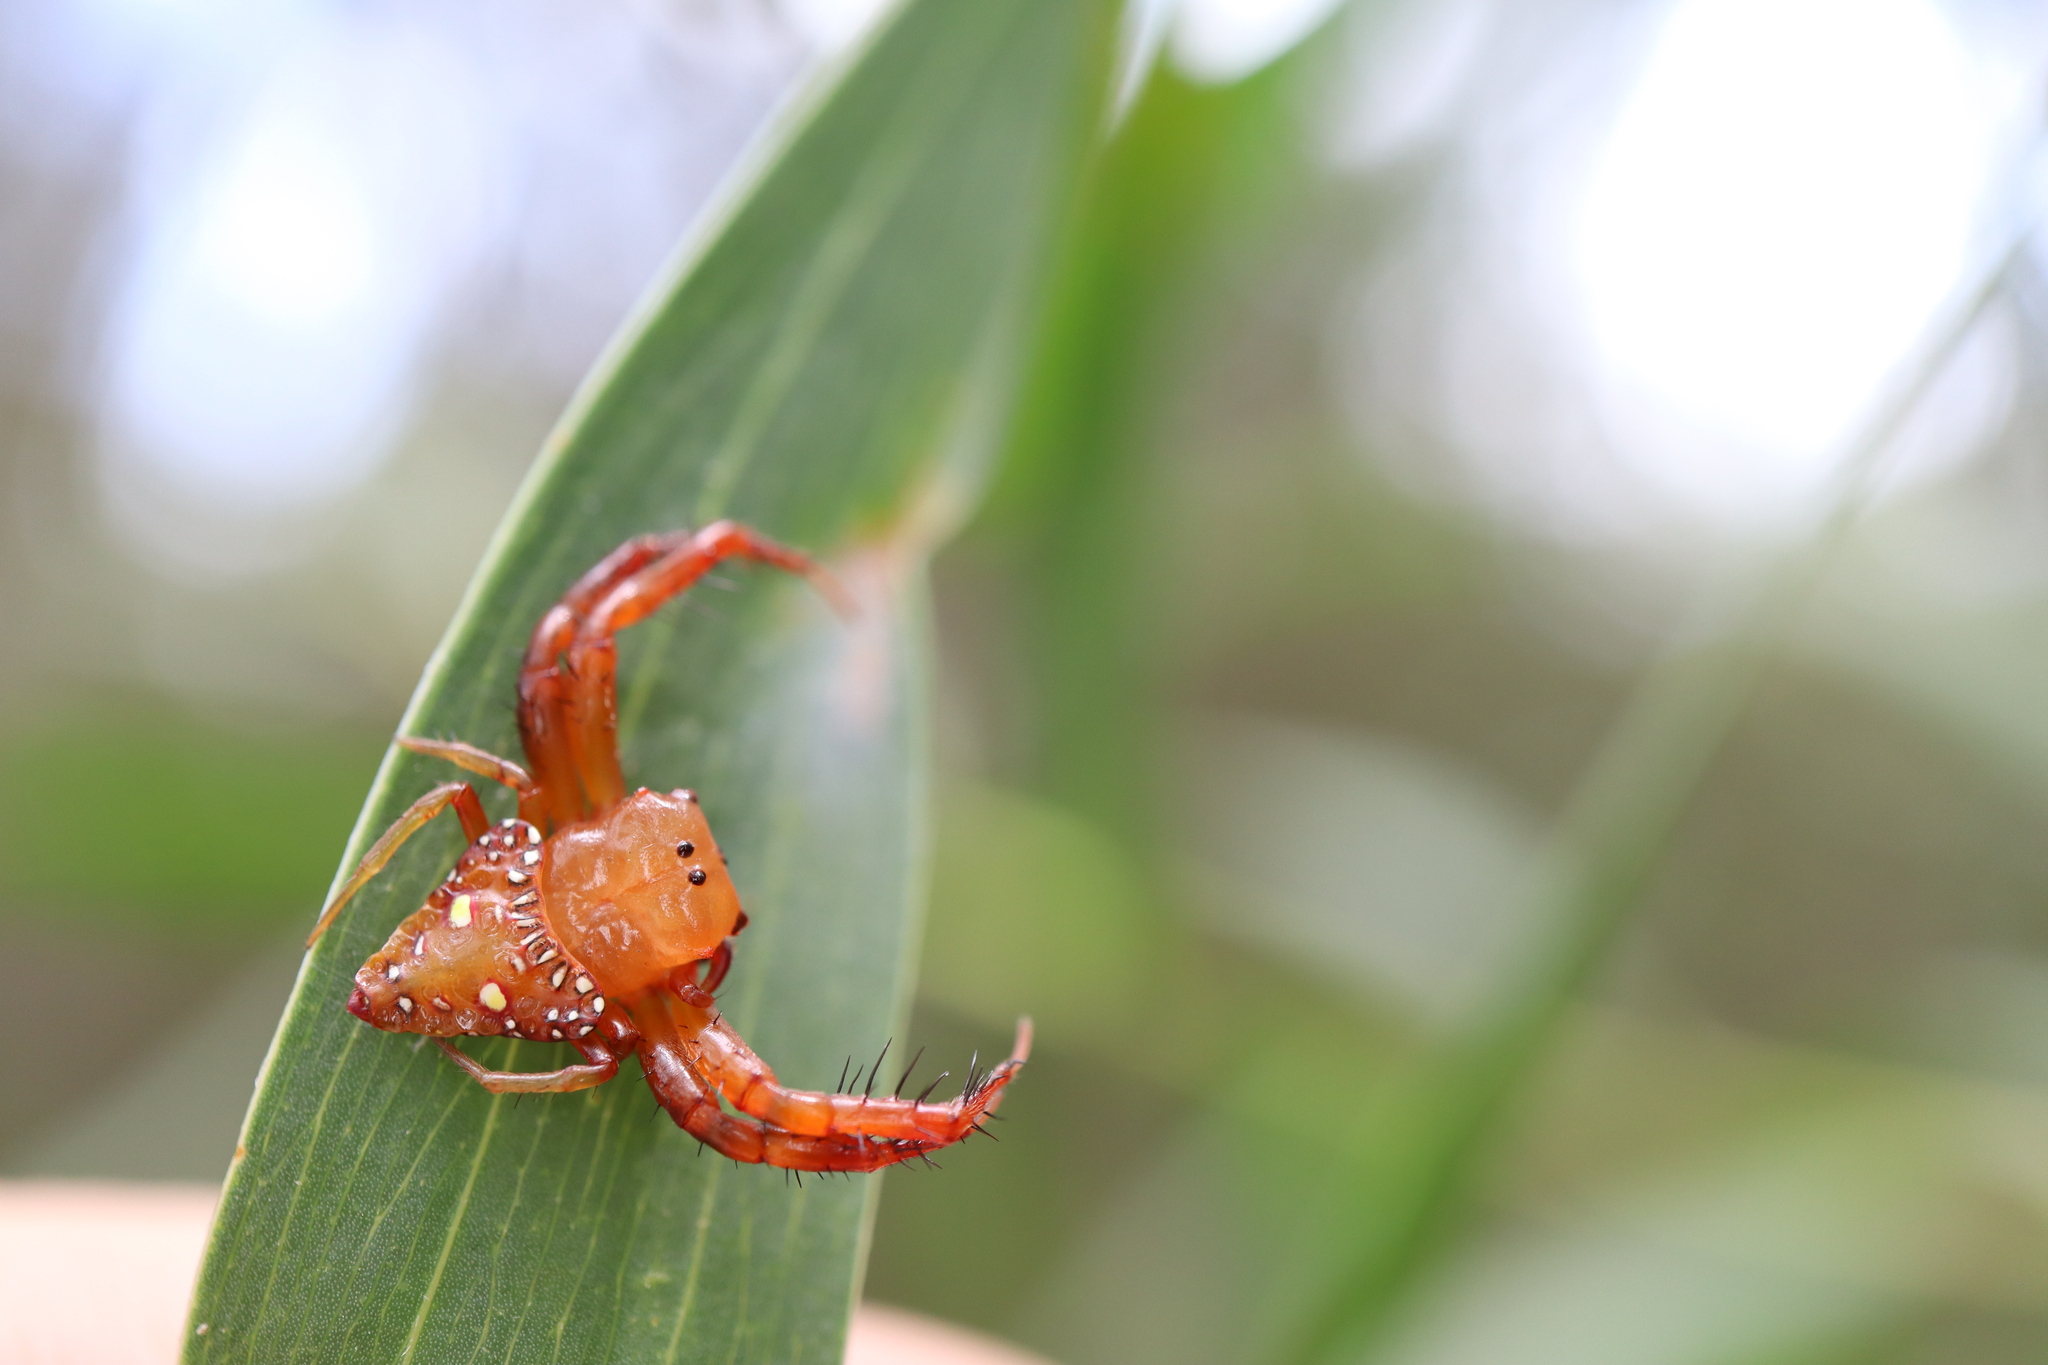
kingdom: Animalia
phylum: Arthropoda
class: Arachnida
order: Araneae
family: Arkyidae
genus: Arkys
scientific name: Arkys lancearius
